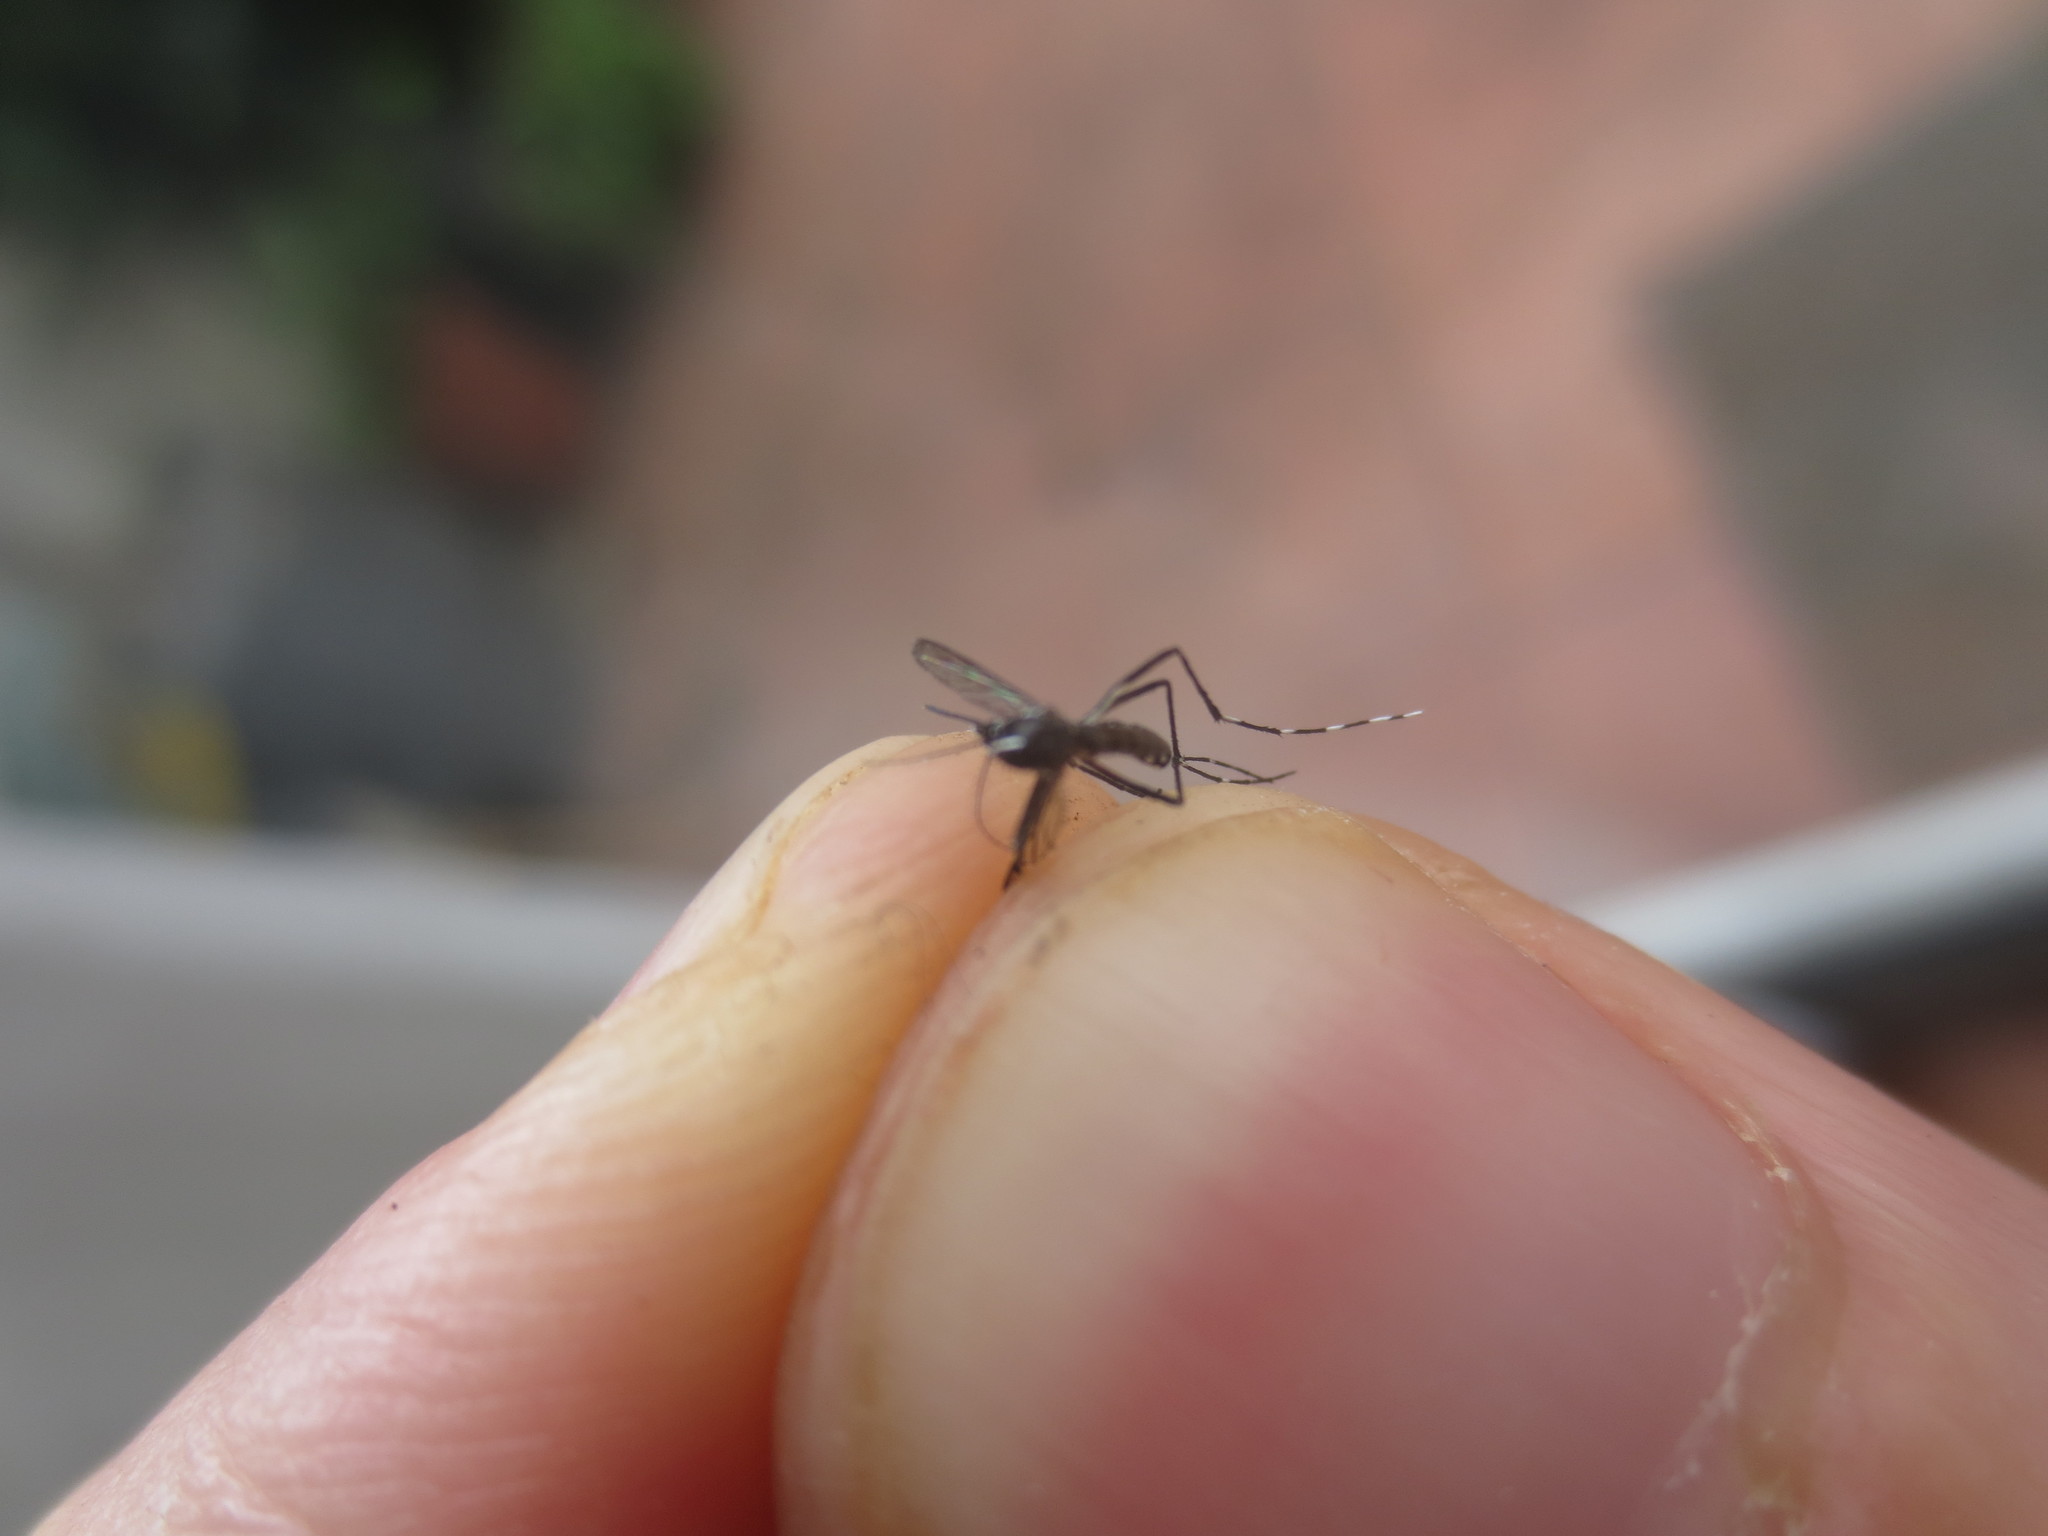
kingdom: Animalia
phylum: Arthropoda
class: Insecta
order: Diptera
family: Culicidae
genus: Aedes
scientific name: Aedes albopictus
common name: Tiger mosquito
